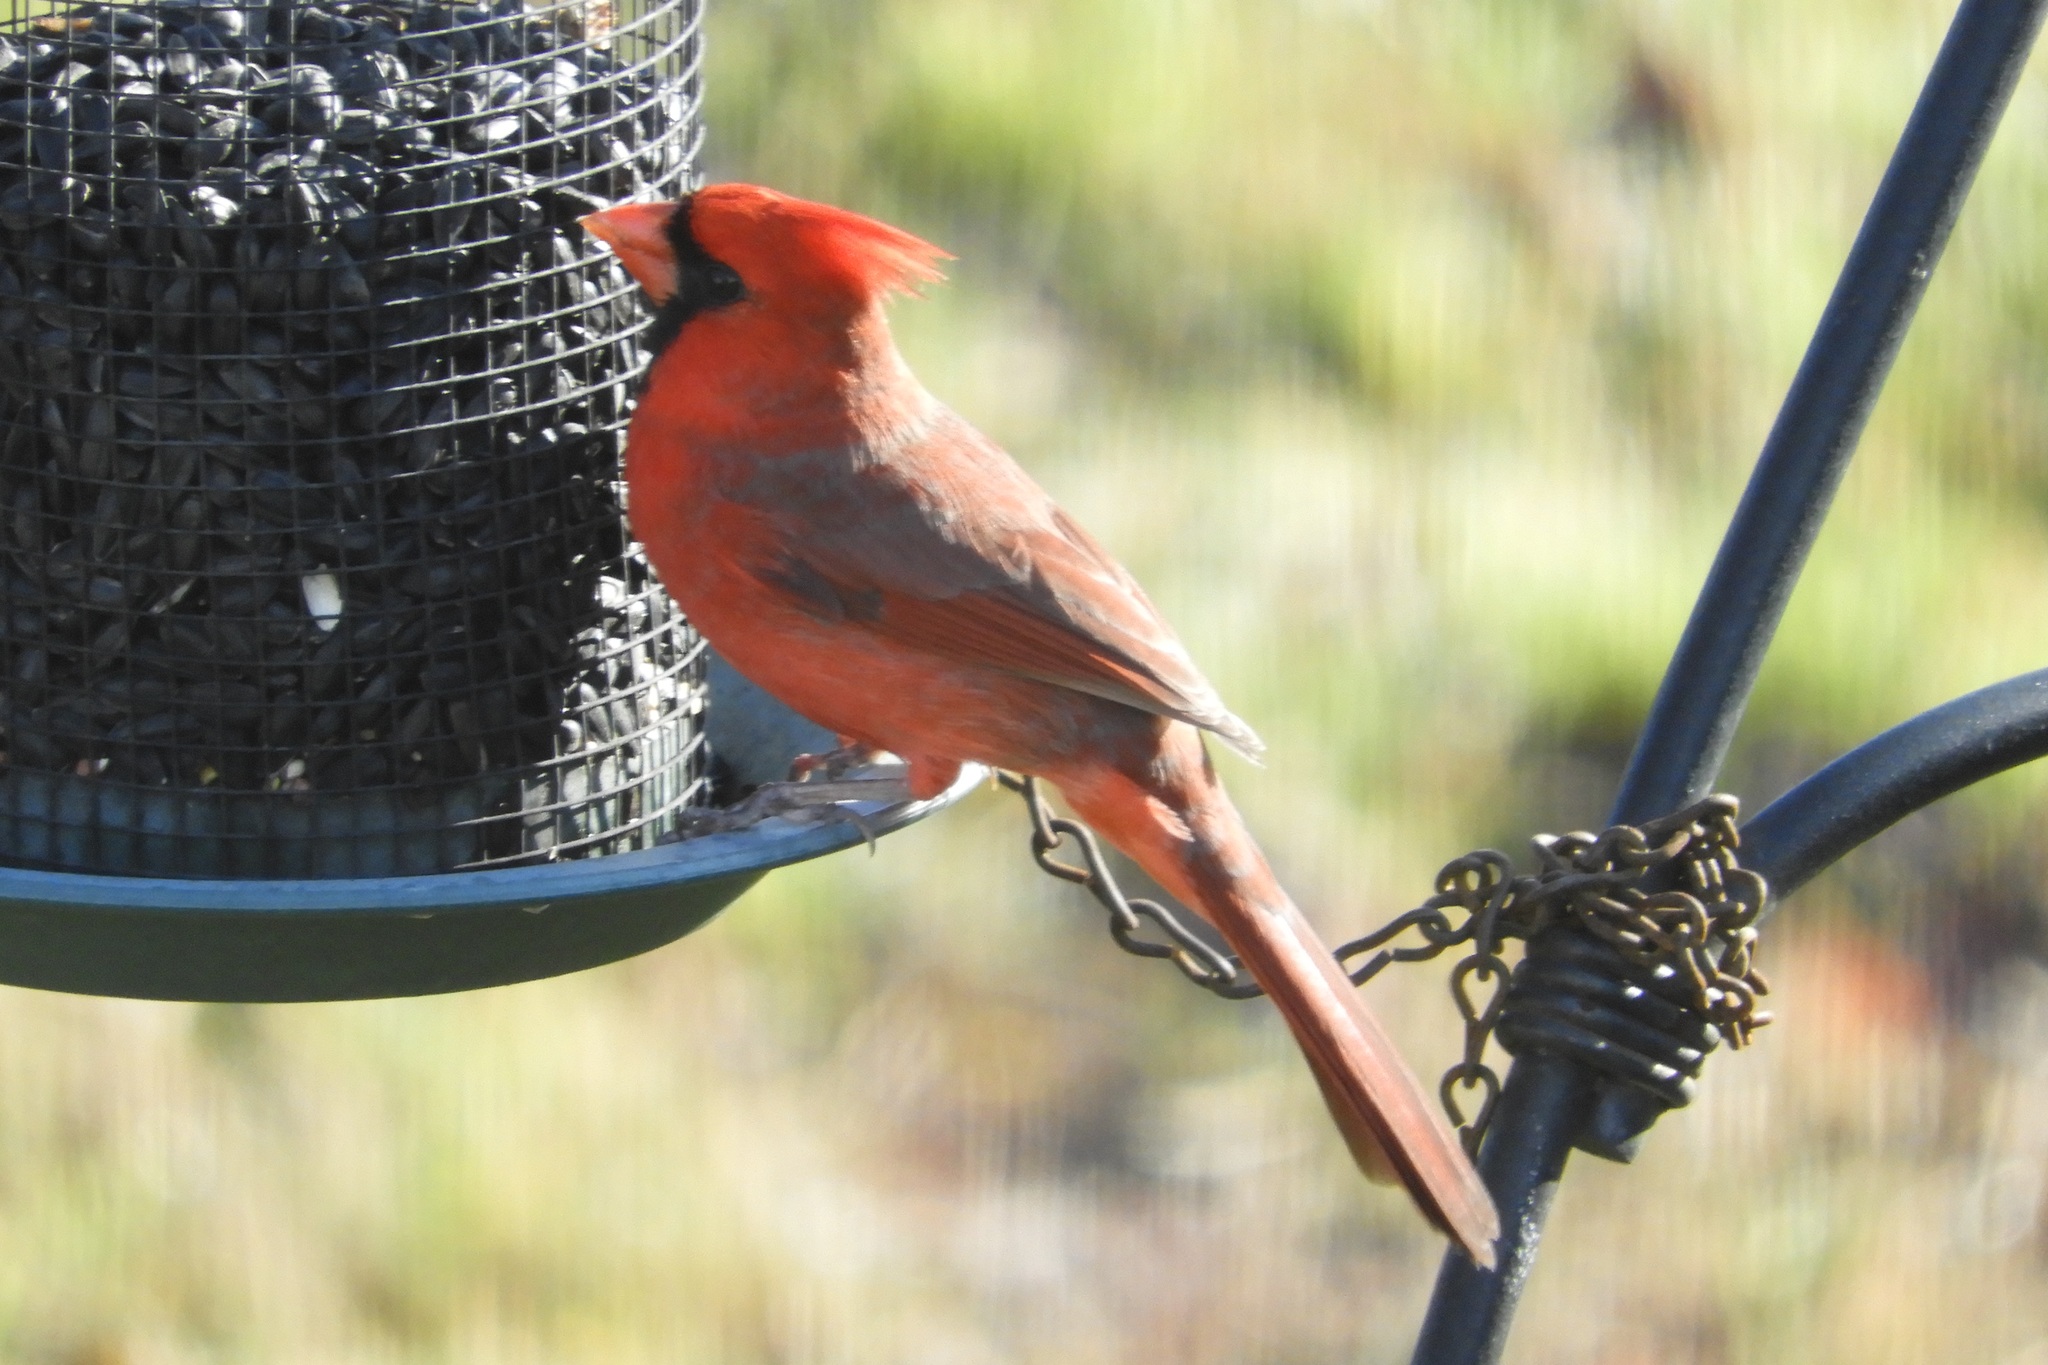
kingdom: Animalia
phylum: Chordata
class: Aves
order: Passeriformes
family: Cardinalidae
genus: Cardinalis
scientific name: Cardinalis cardinalis
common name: Northern cardinal
